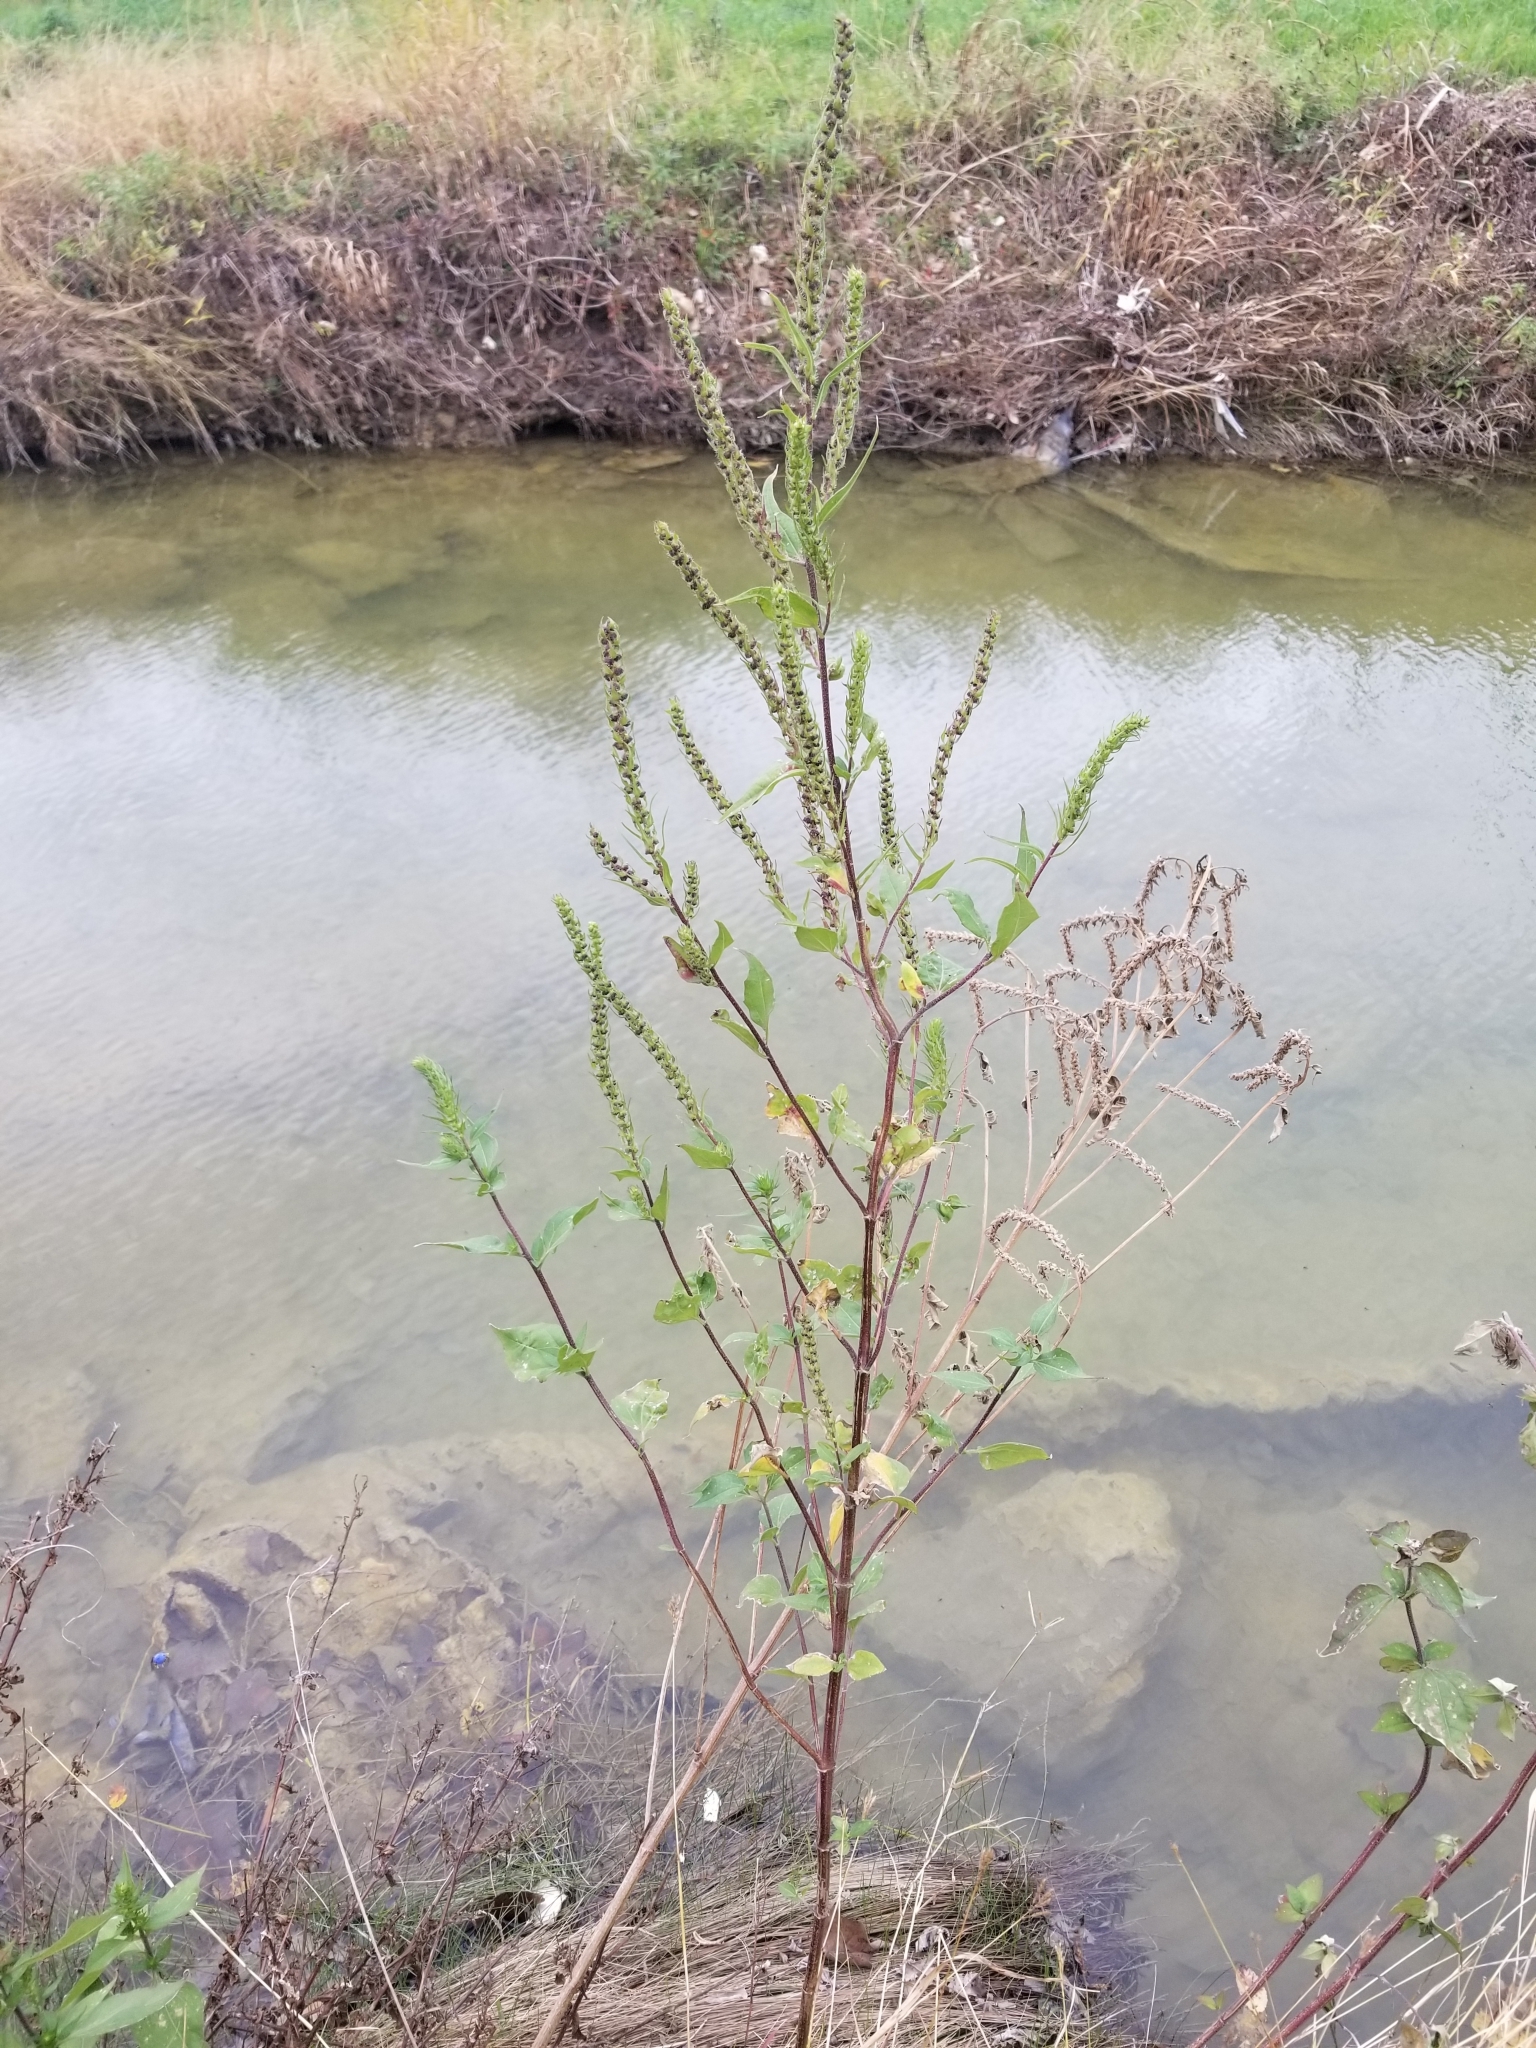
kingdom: Plantae
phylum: Tracheophyta
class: Magnoliopsida
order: Asterales
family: Asteraceae
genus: Iva
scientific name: Iva annua
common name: Marsh-elder
